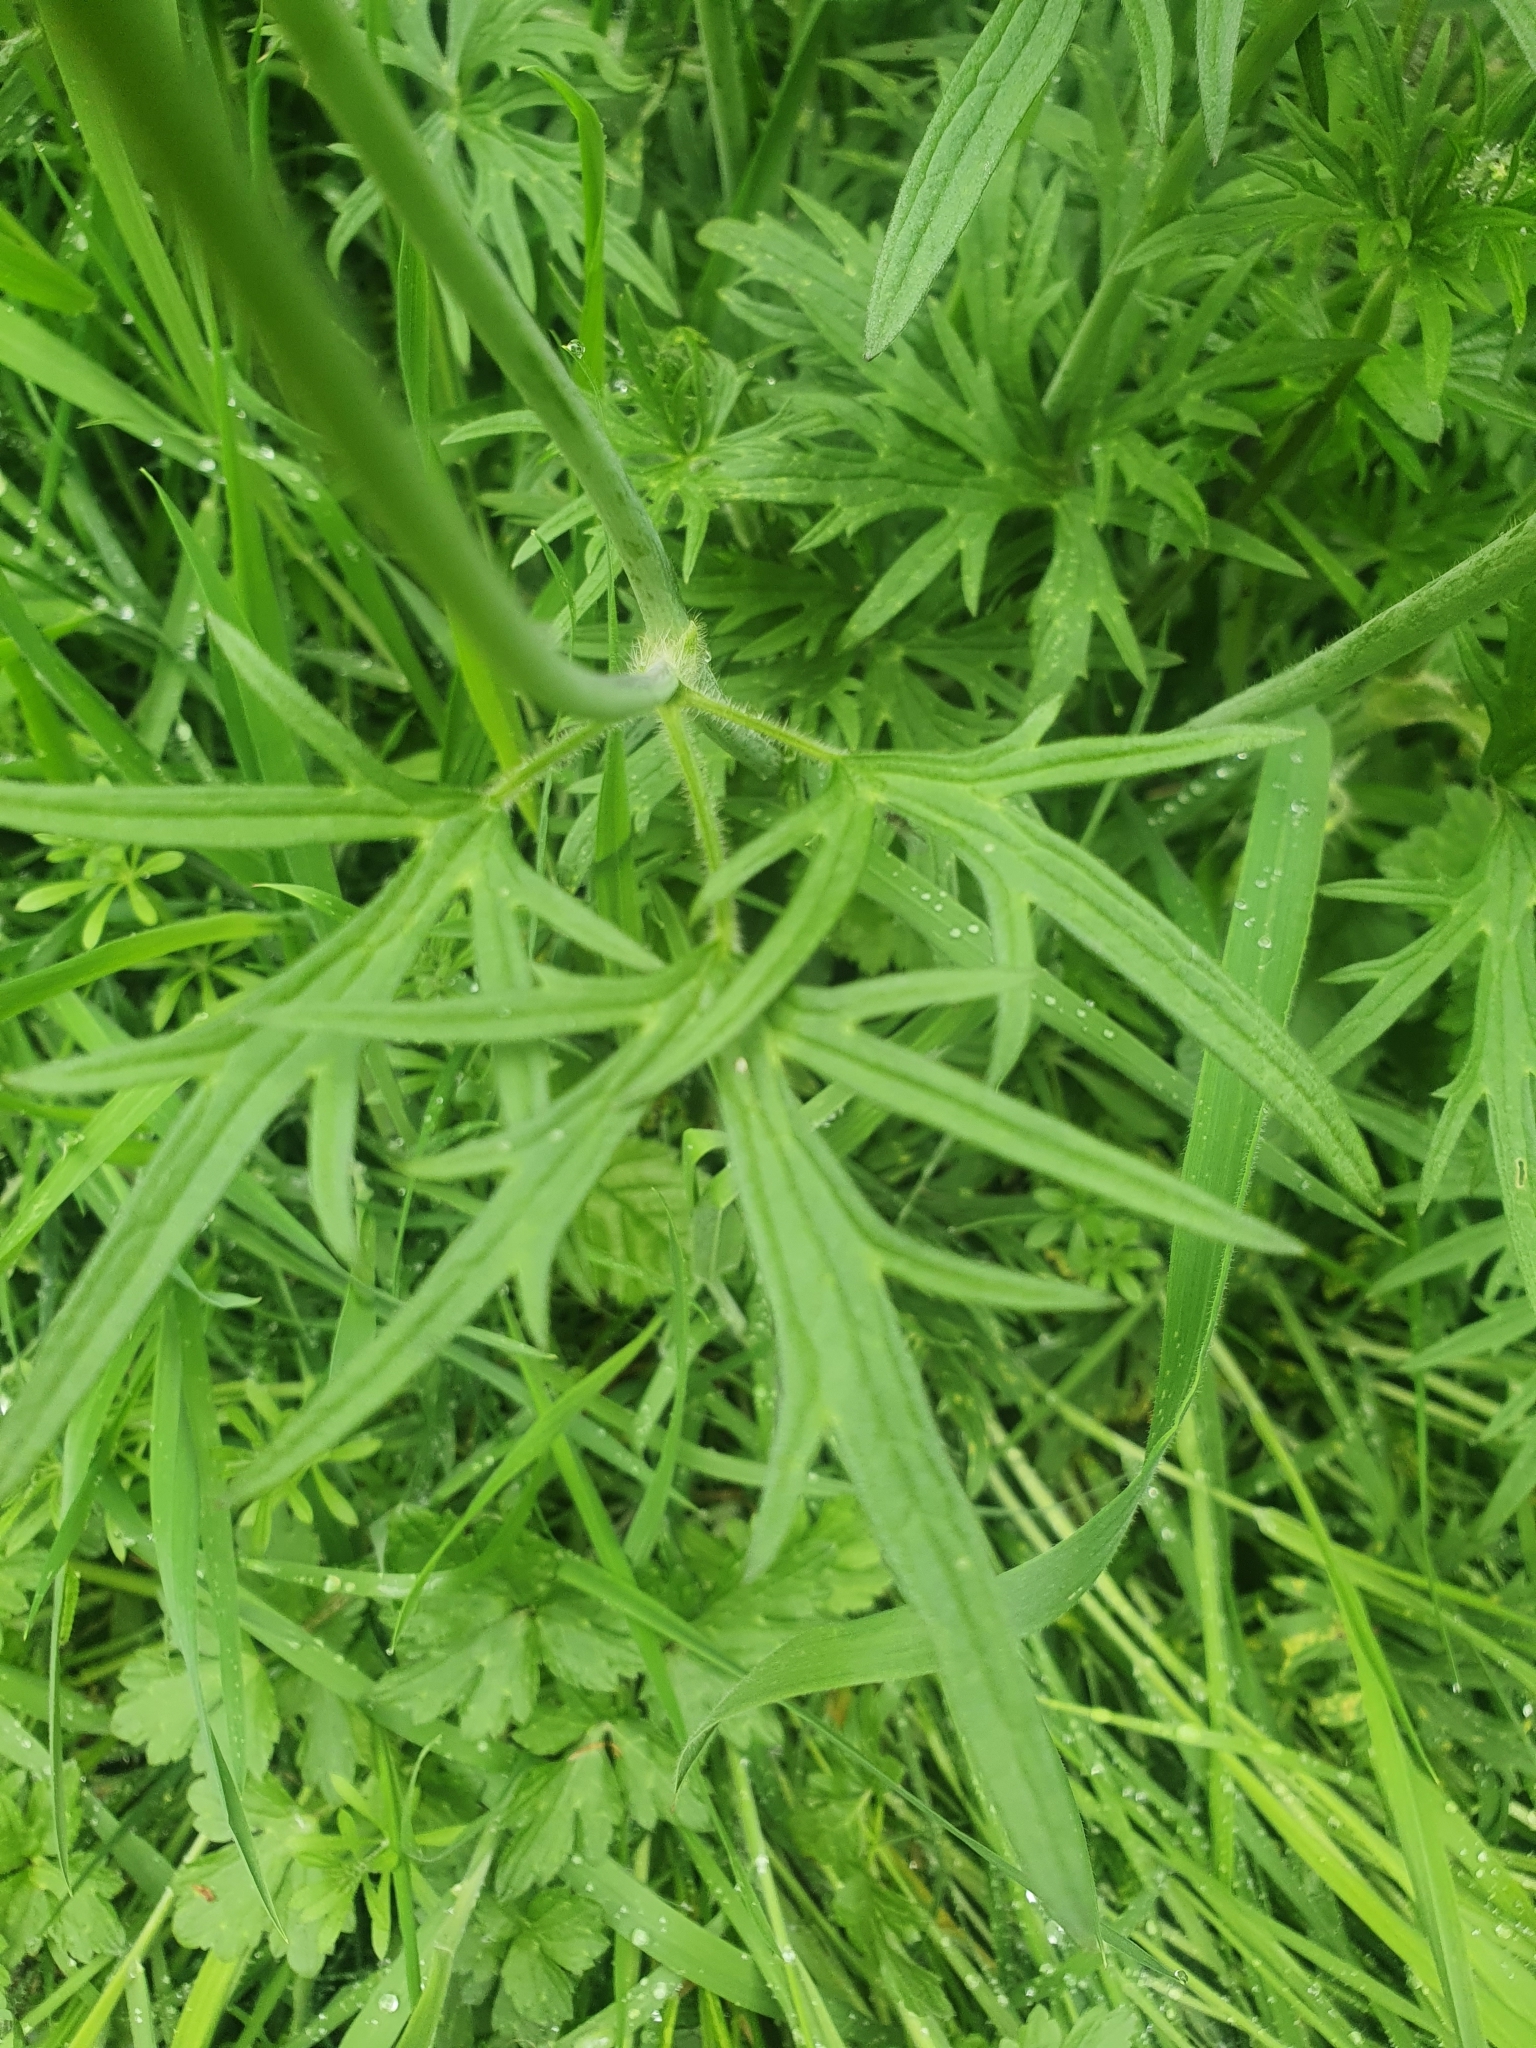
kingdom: Plantae
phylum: Tracheophyta
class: Magnoliopsida
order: Ranunculales
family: Ranunculaceae
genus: Ranunculus
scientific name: Ranunculus acris
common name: Meadow buttercup
